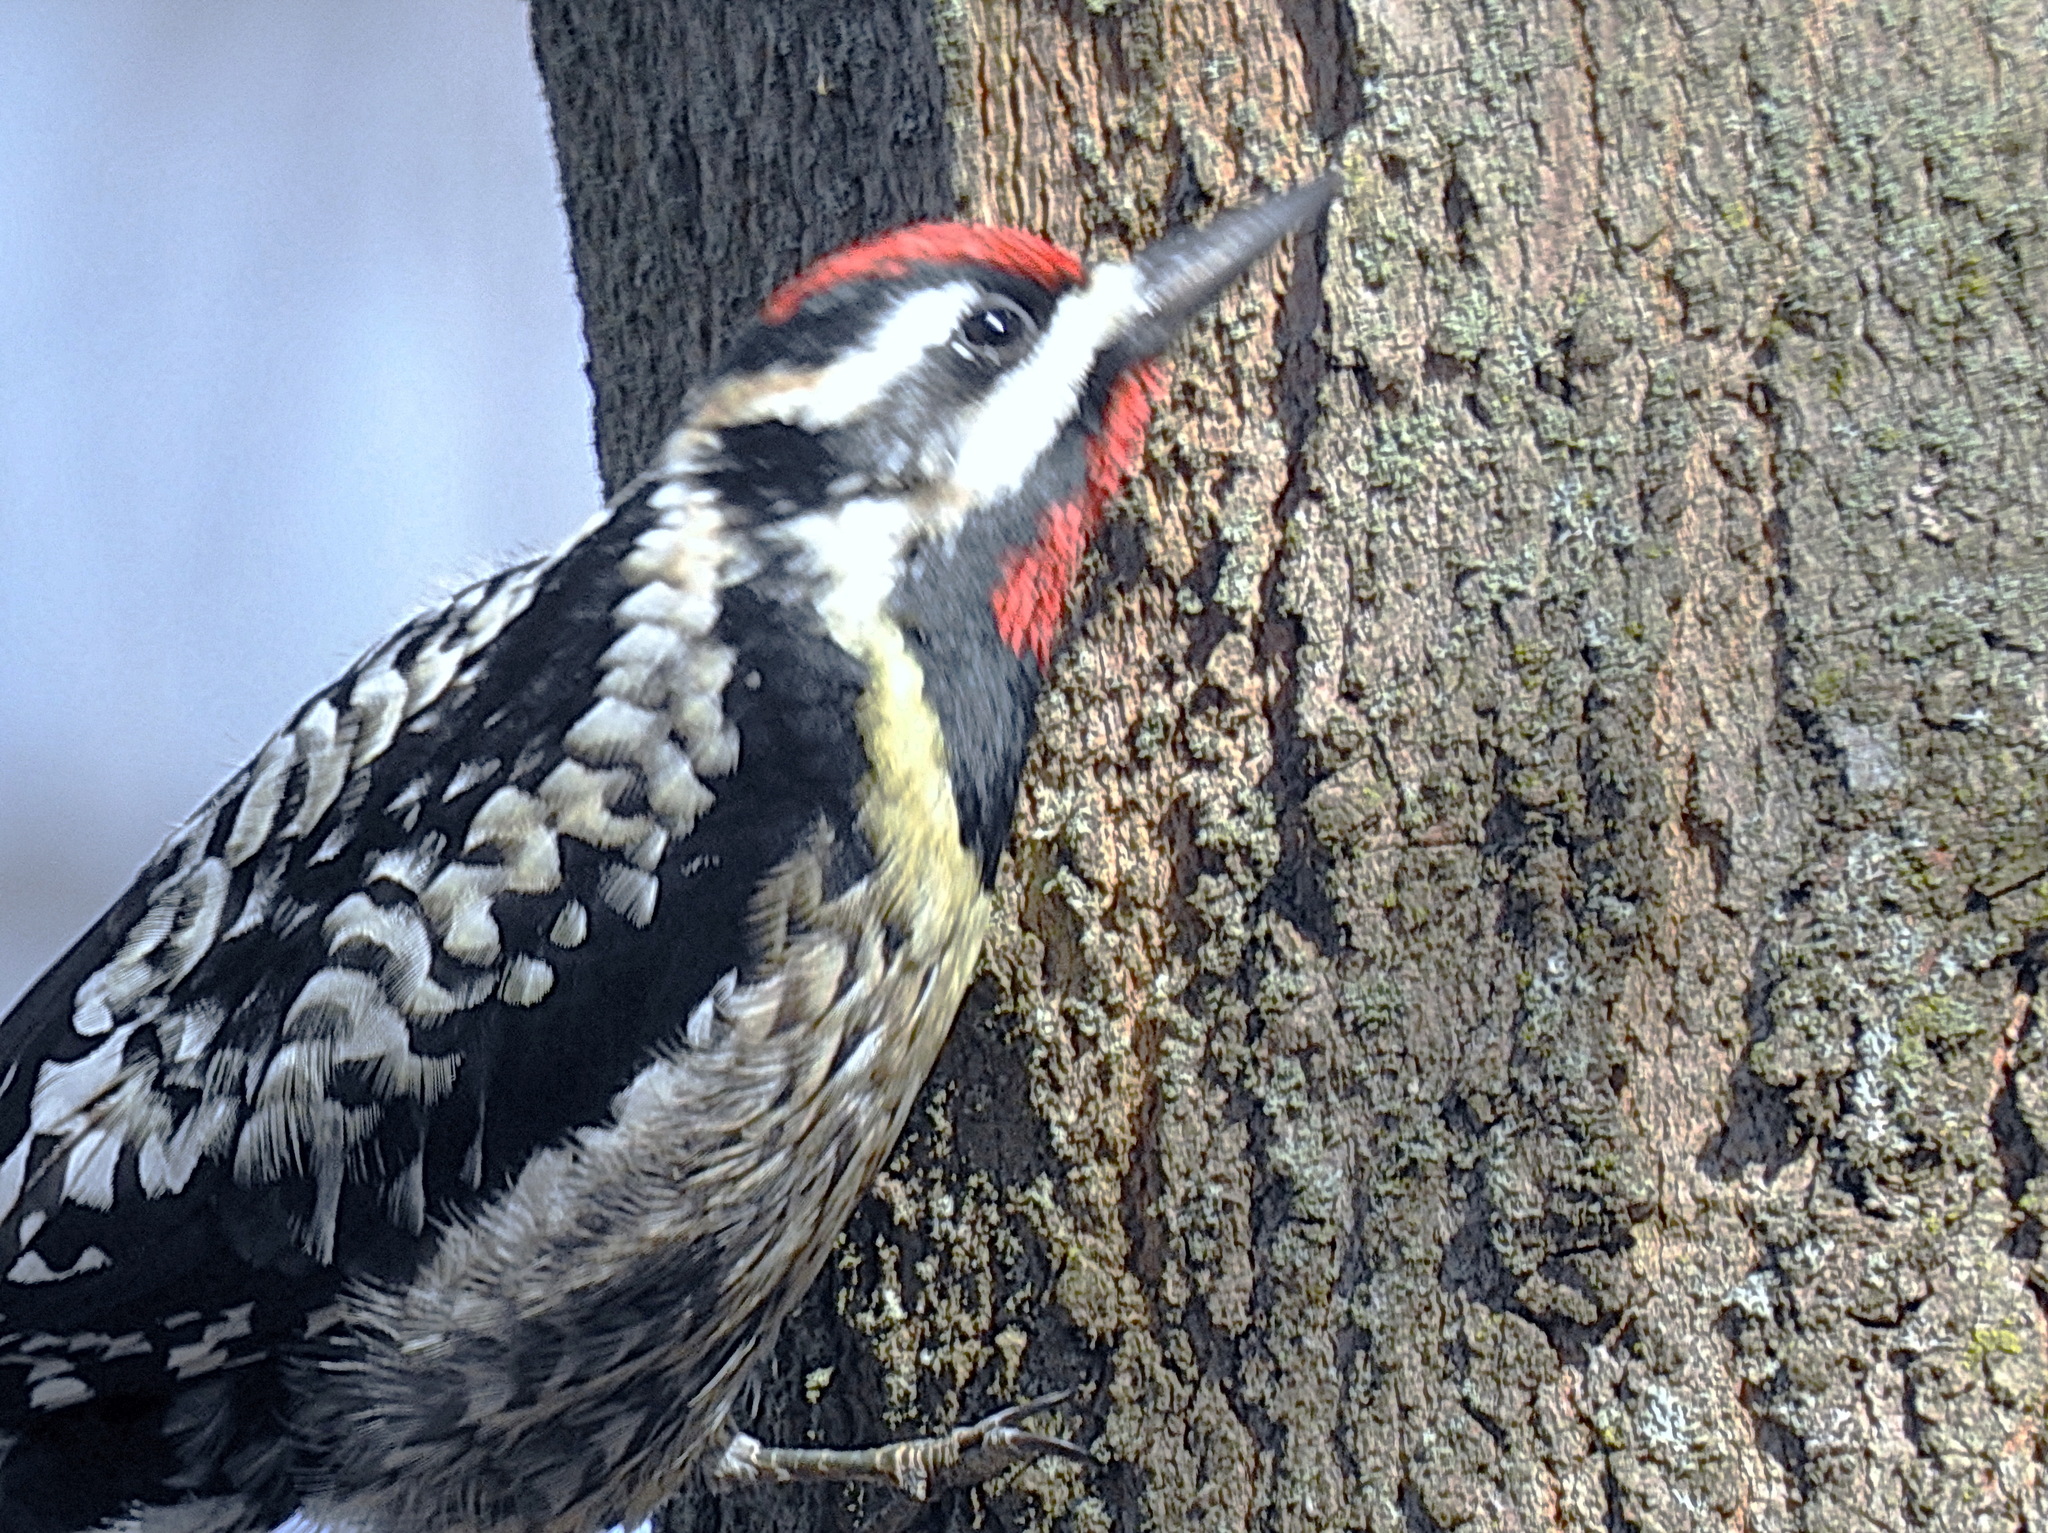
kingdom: Animalia
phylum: Chordata
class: Aves
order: Piciformes
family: Picidae
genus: Sphyrapicus
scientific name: Sphyrapicus varius
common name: Yellow-bellied sapsucker
